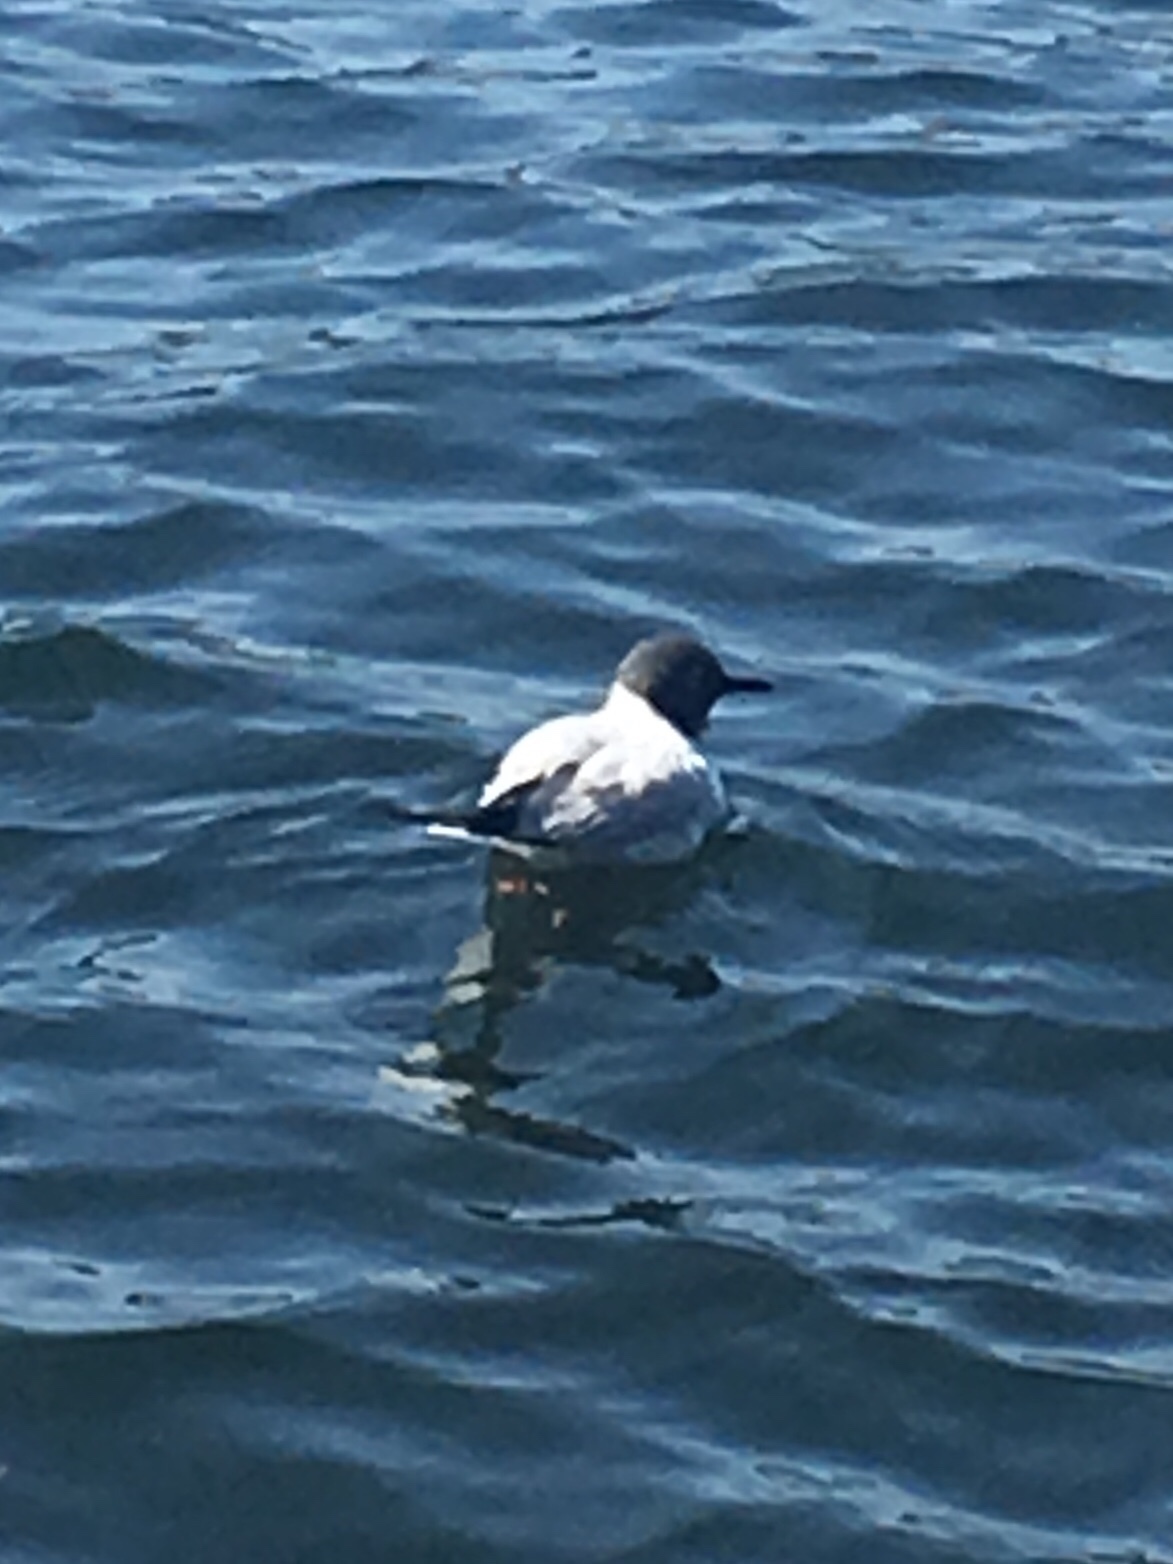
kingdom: Animalia
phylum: Chordata
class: Aves
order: Charadriiformes
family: Laridae
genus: Chroicocephalus
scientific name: Chroicocephalus philadelphia
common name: Bonaparte's gull
